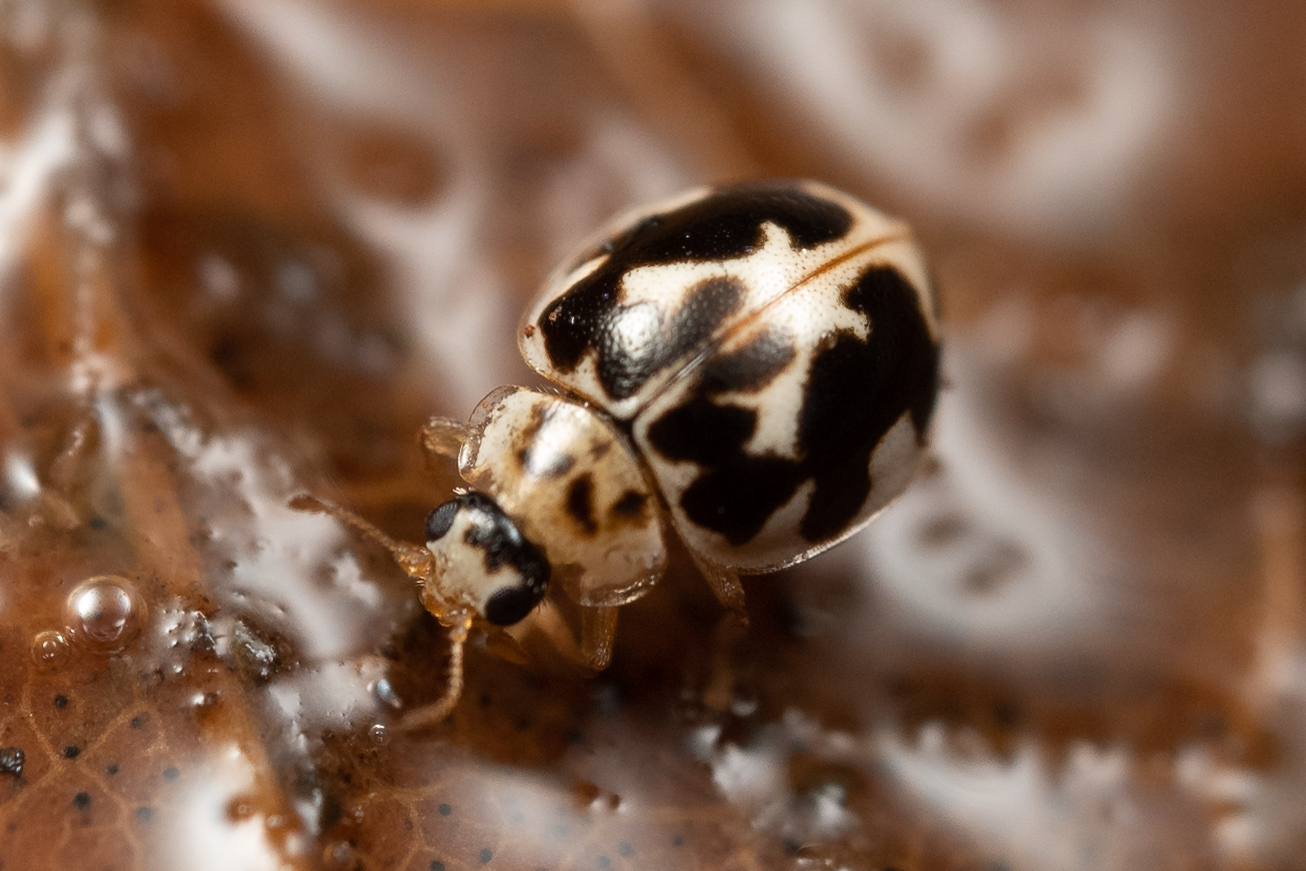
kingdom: Animalia
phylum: Arthropoda
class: Insecta
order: Coleoptera
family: Coccinellidae
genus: Psyllobora
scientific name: Psyllobora vigintimaculata
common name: Ladybird beetle
